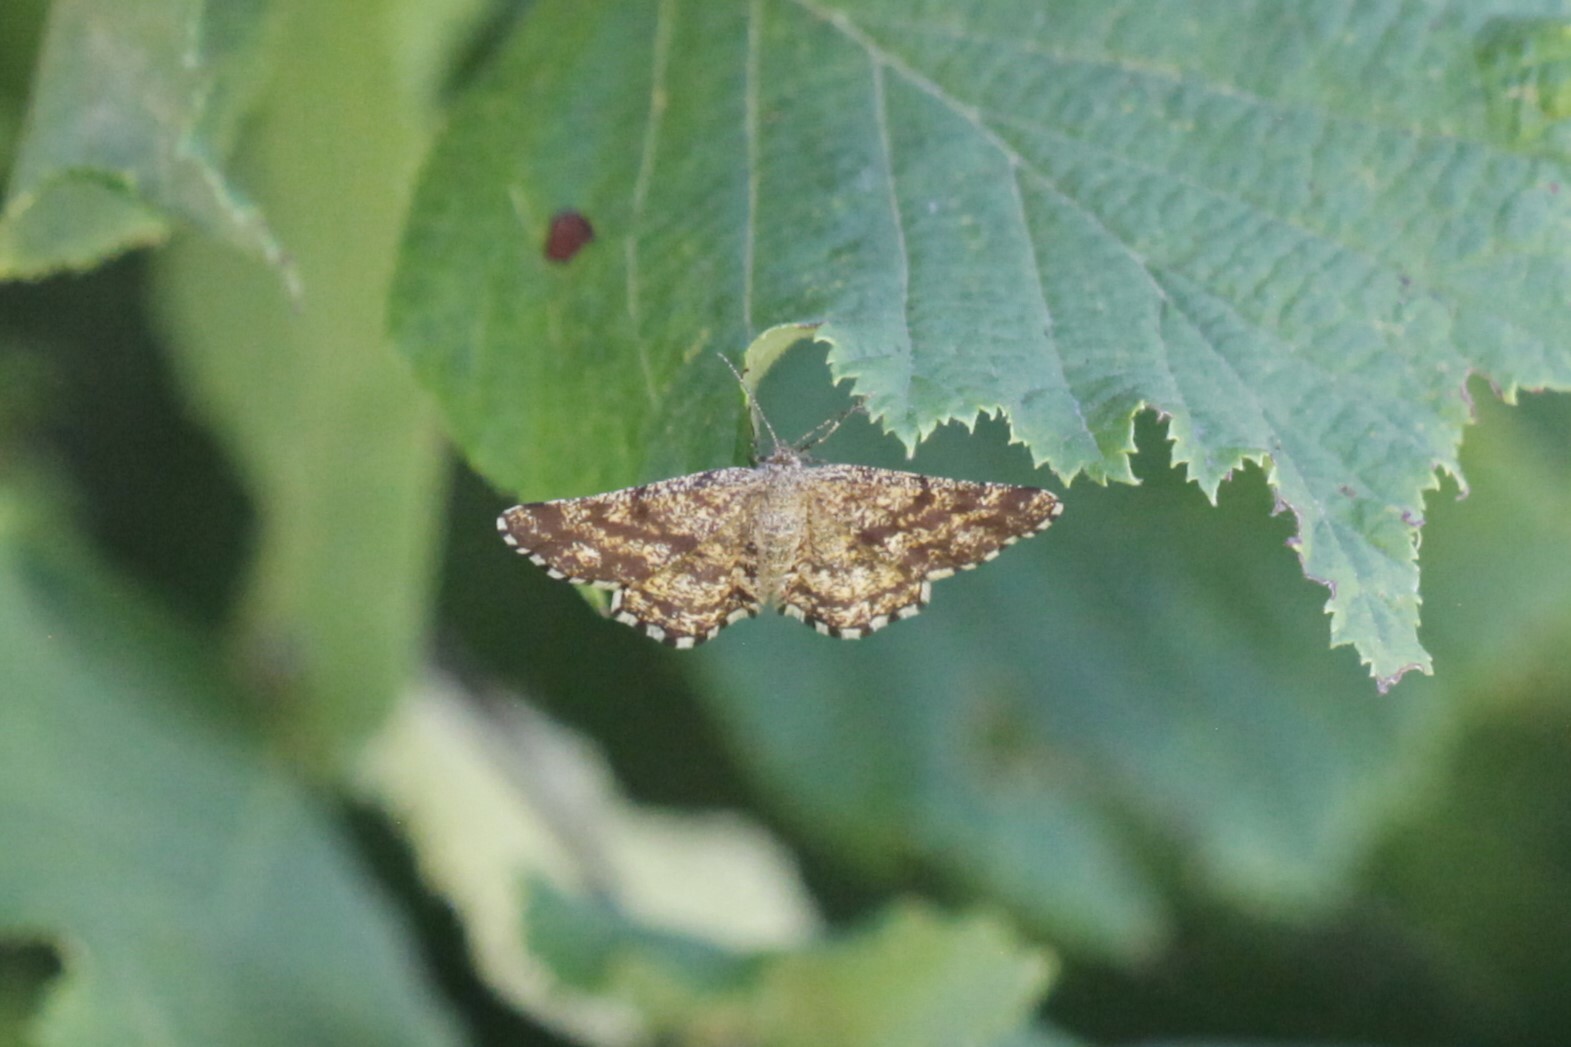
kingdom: Animalia
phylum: Arthropoda
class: Insecta
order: Lepidoptera
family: Geometridae
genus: Ematurga
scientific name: Ematurga atomaria
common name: Common heath
